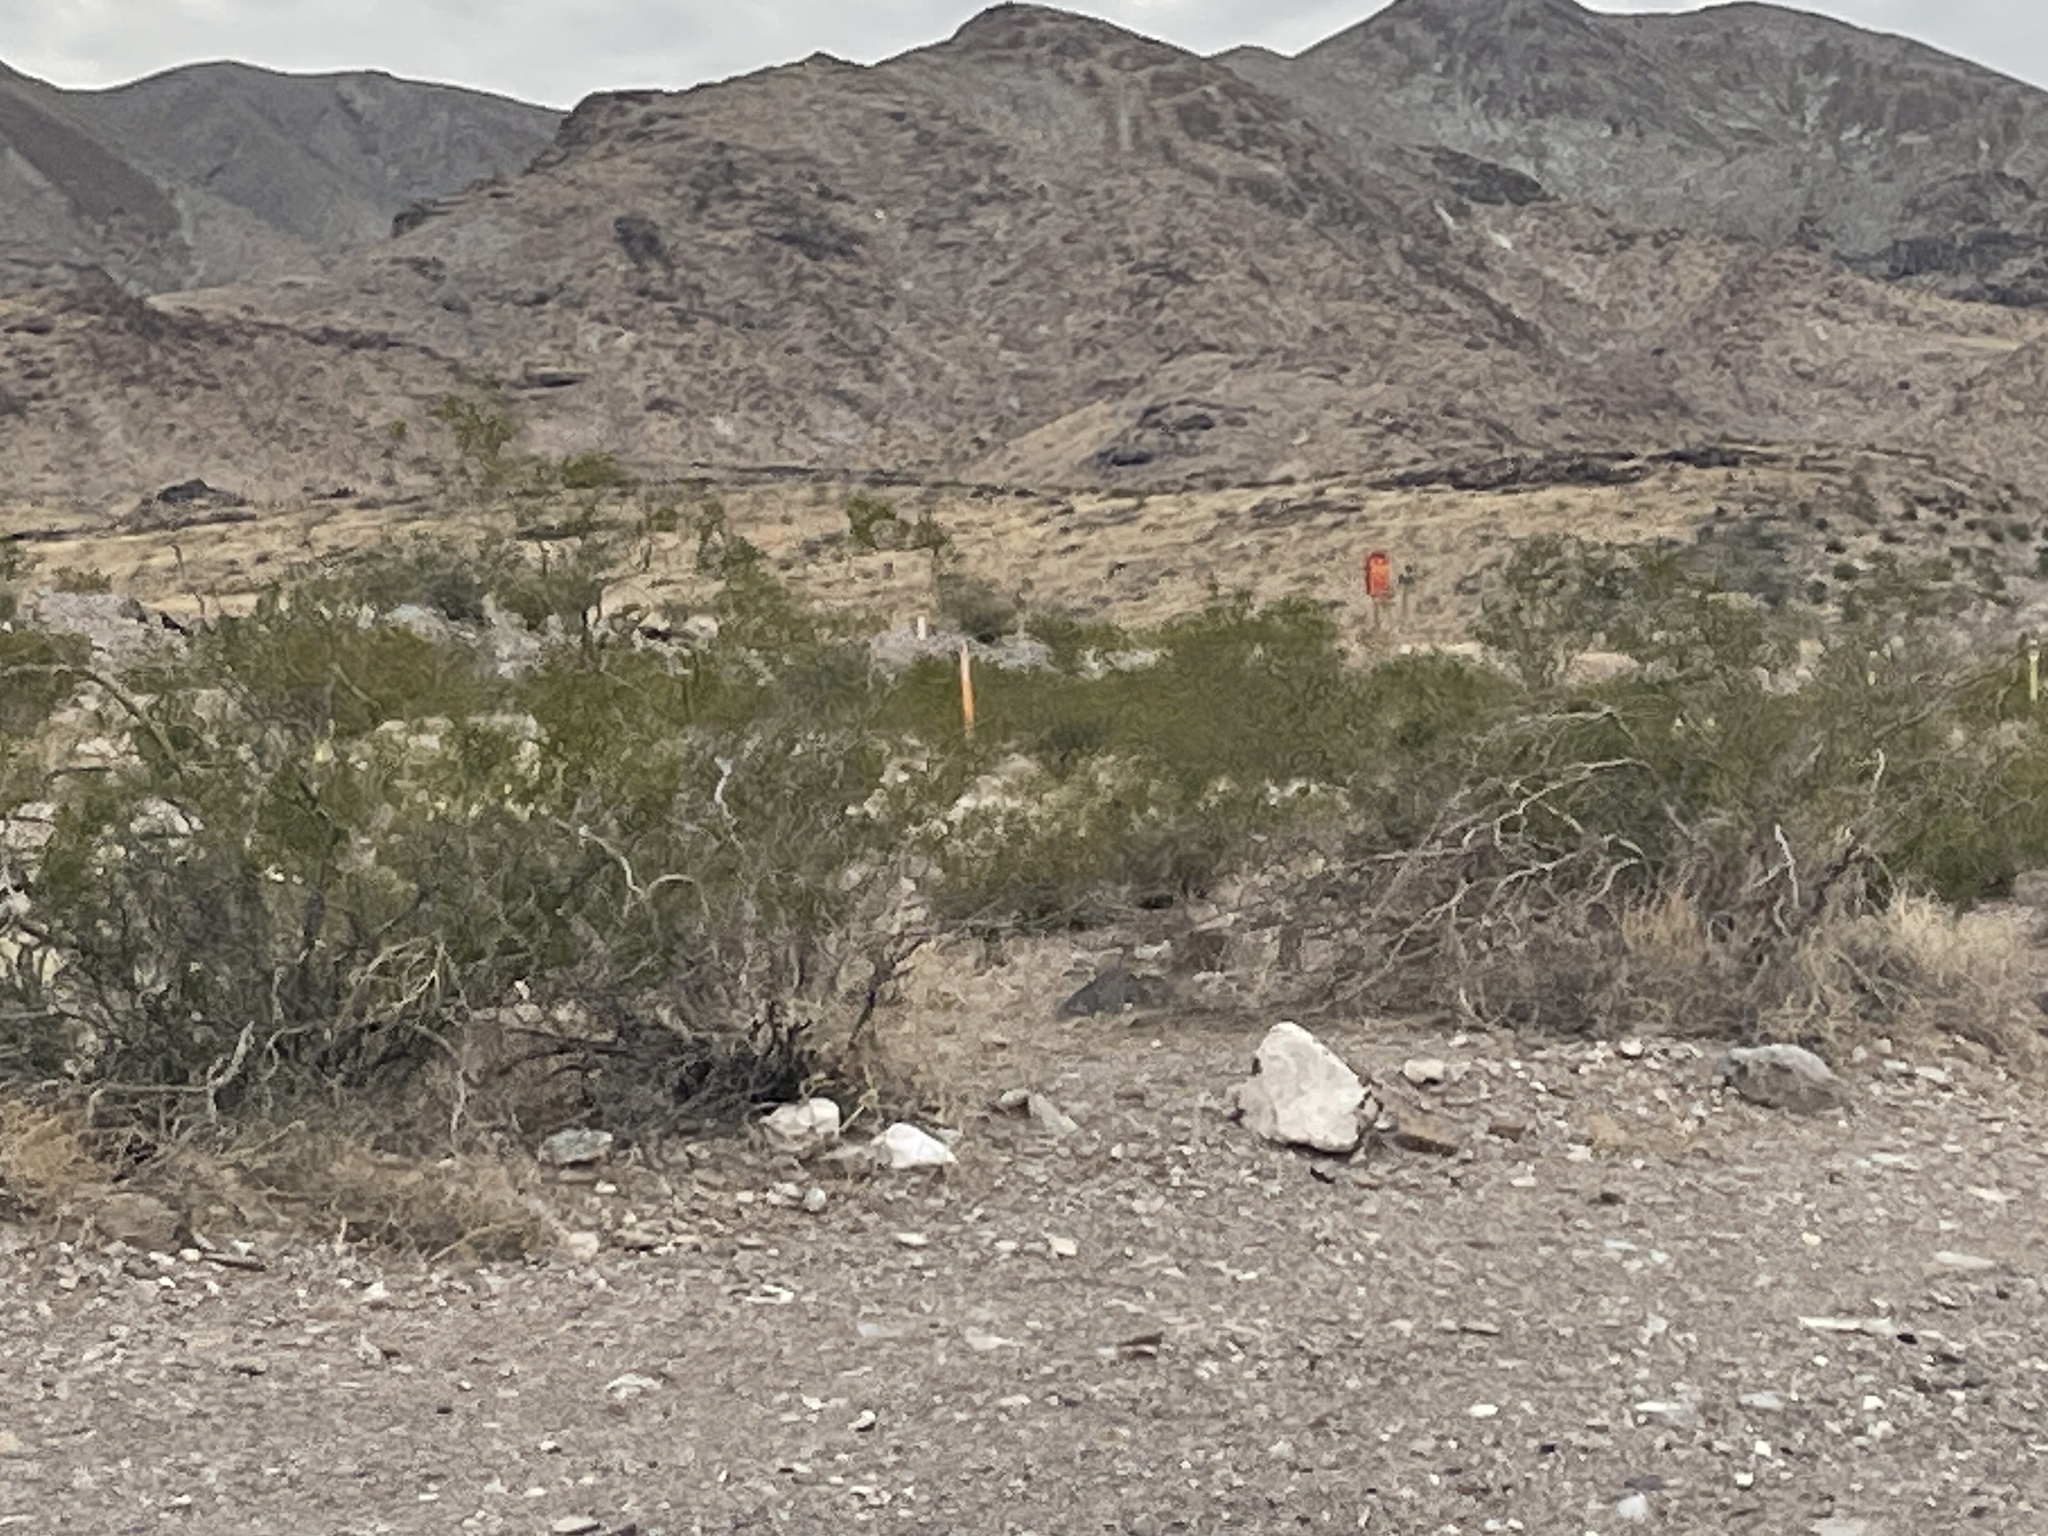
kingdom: Plantae
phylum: Tracheophyta
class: Magnoliopsida
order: Zygophyllales
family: Zygophyllaceae
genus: Larrea
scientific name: Larrea tridentata
